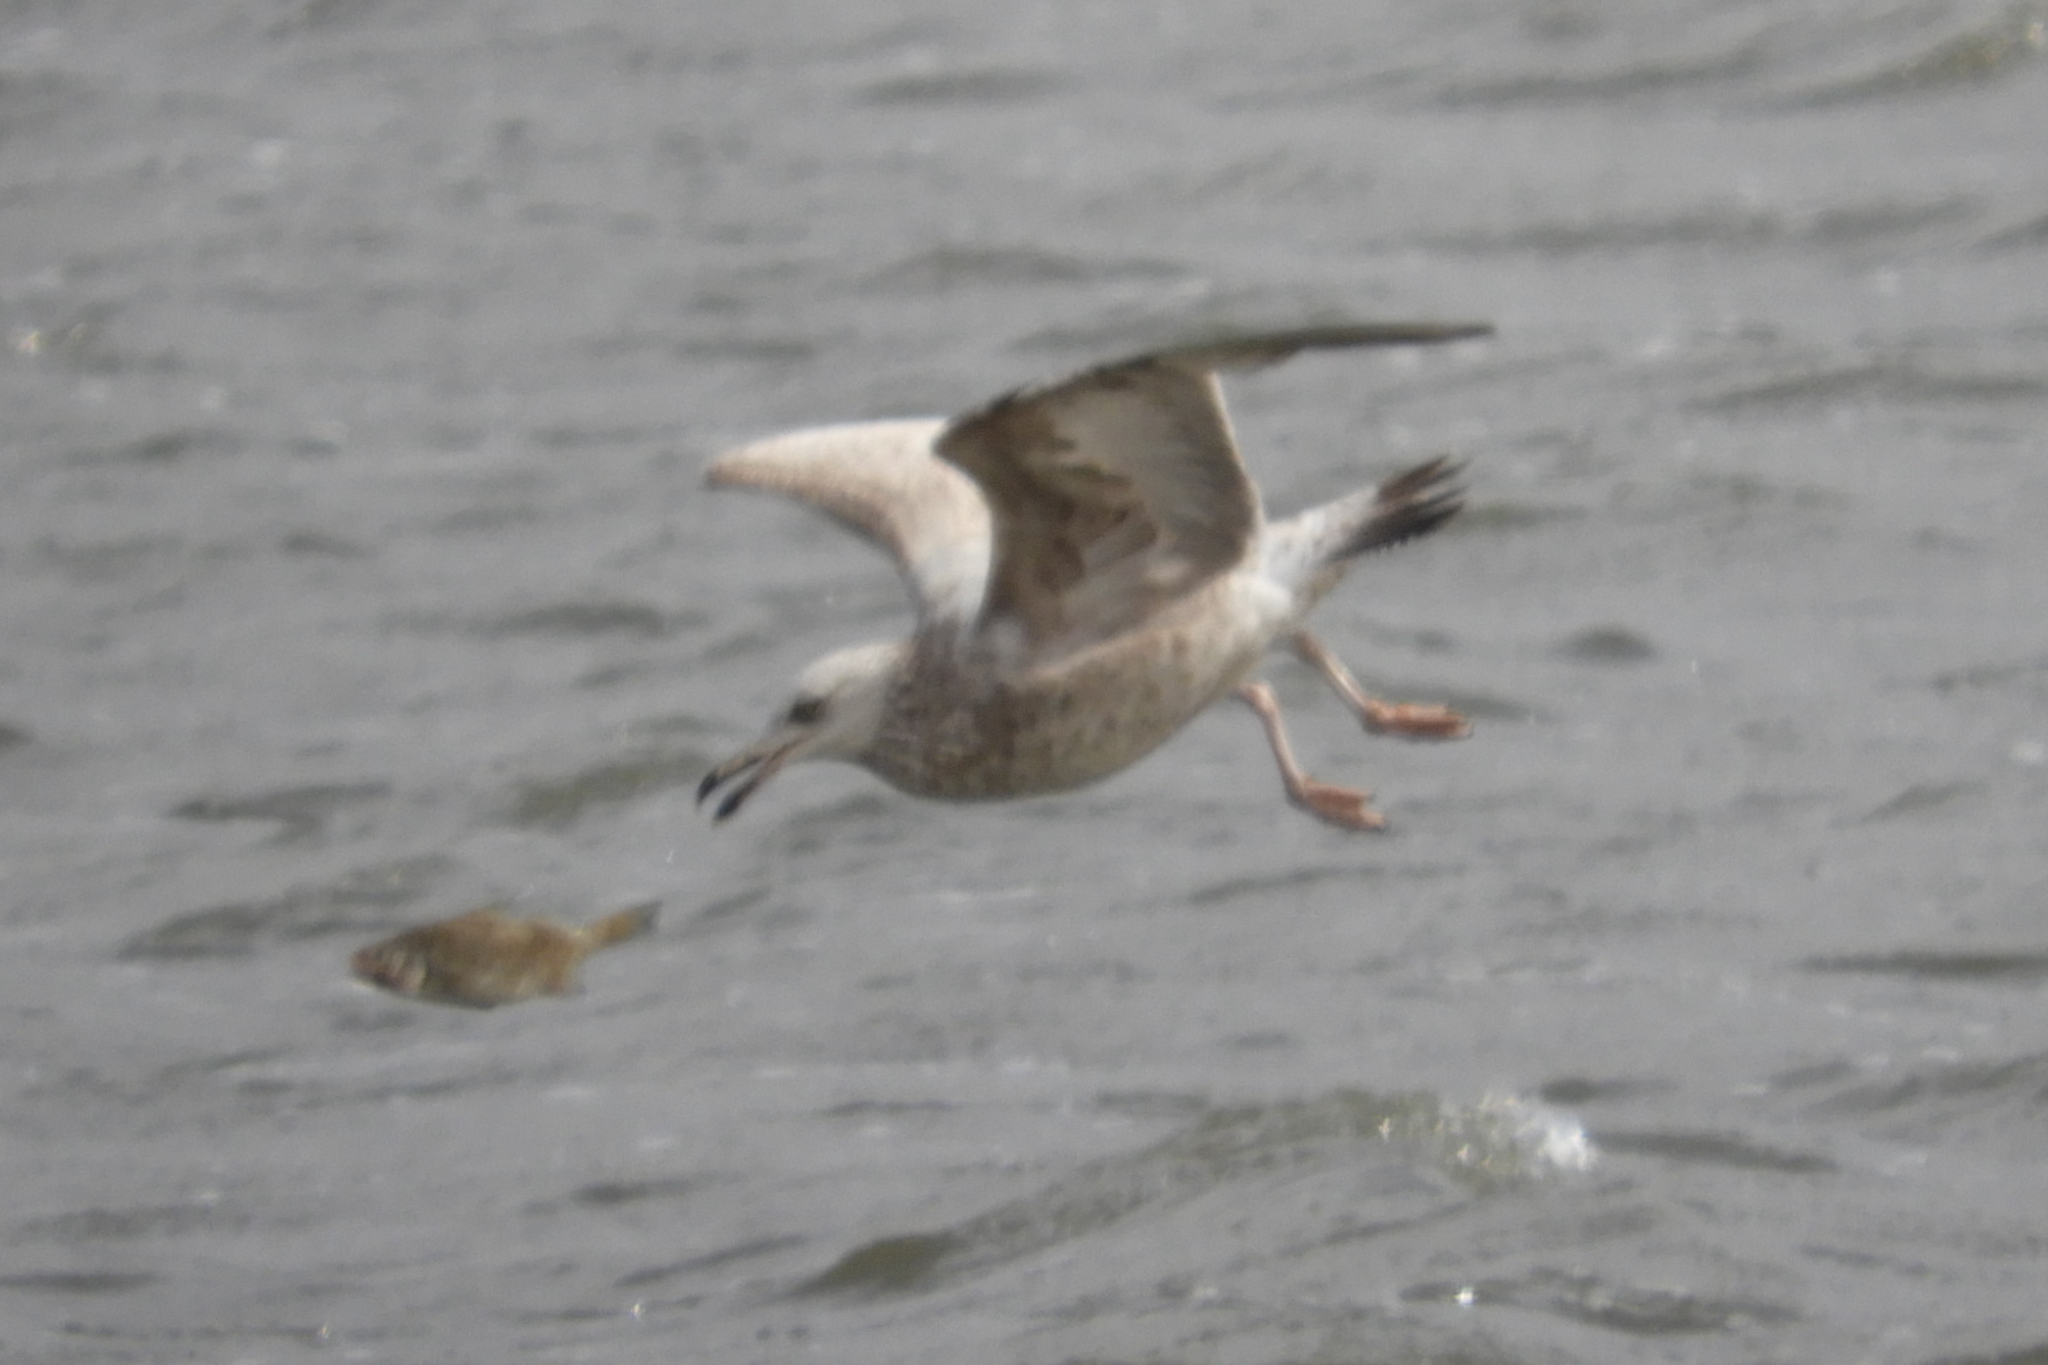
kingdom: Animalia
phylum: Chordata
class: Aves
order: Charadriiformes
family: Laridae
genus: Larus
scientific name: Larus argentatus
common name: Herring gull
